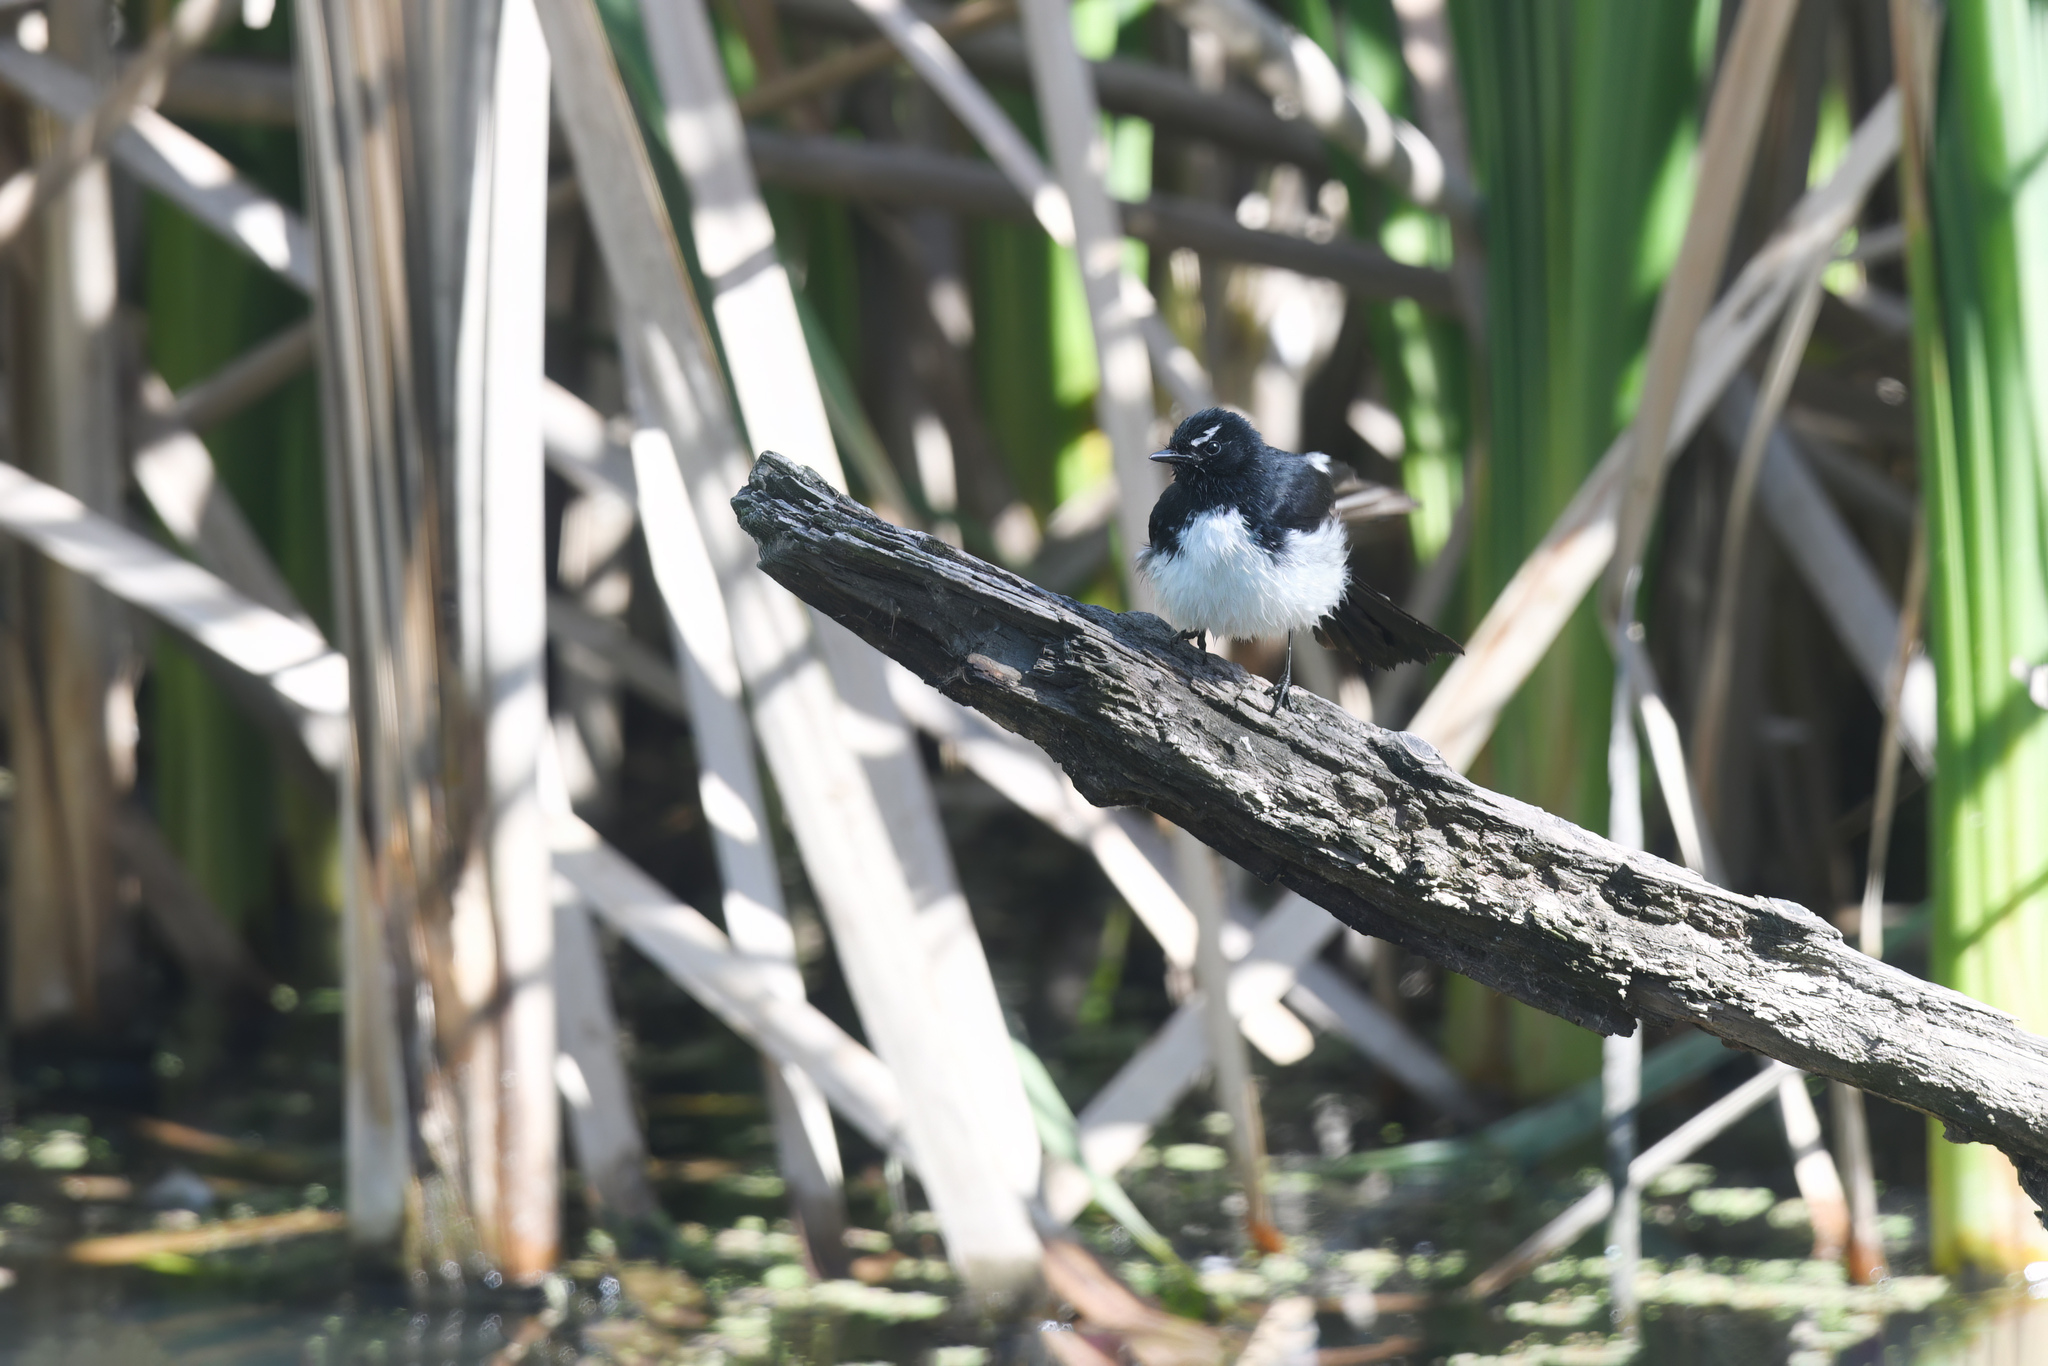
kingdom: Animalia
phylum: Chordata
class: Aves
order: Passeriformes
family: Rhipiduridae
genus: Rhipidura
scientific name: Rhipidura leucophrys
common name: Willie wagtail
